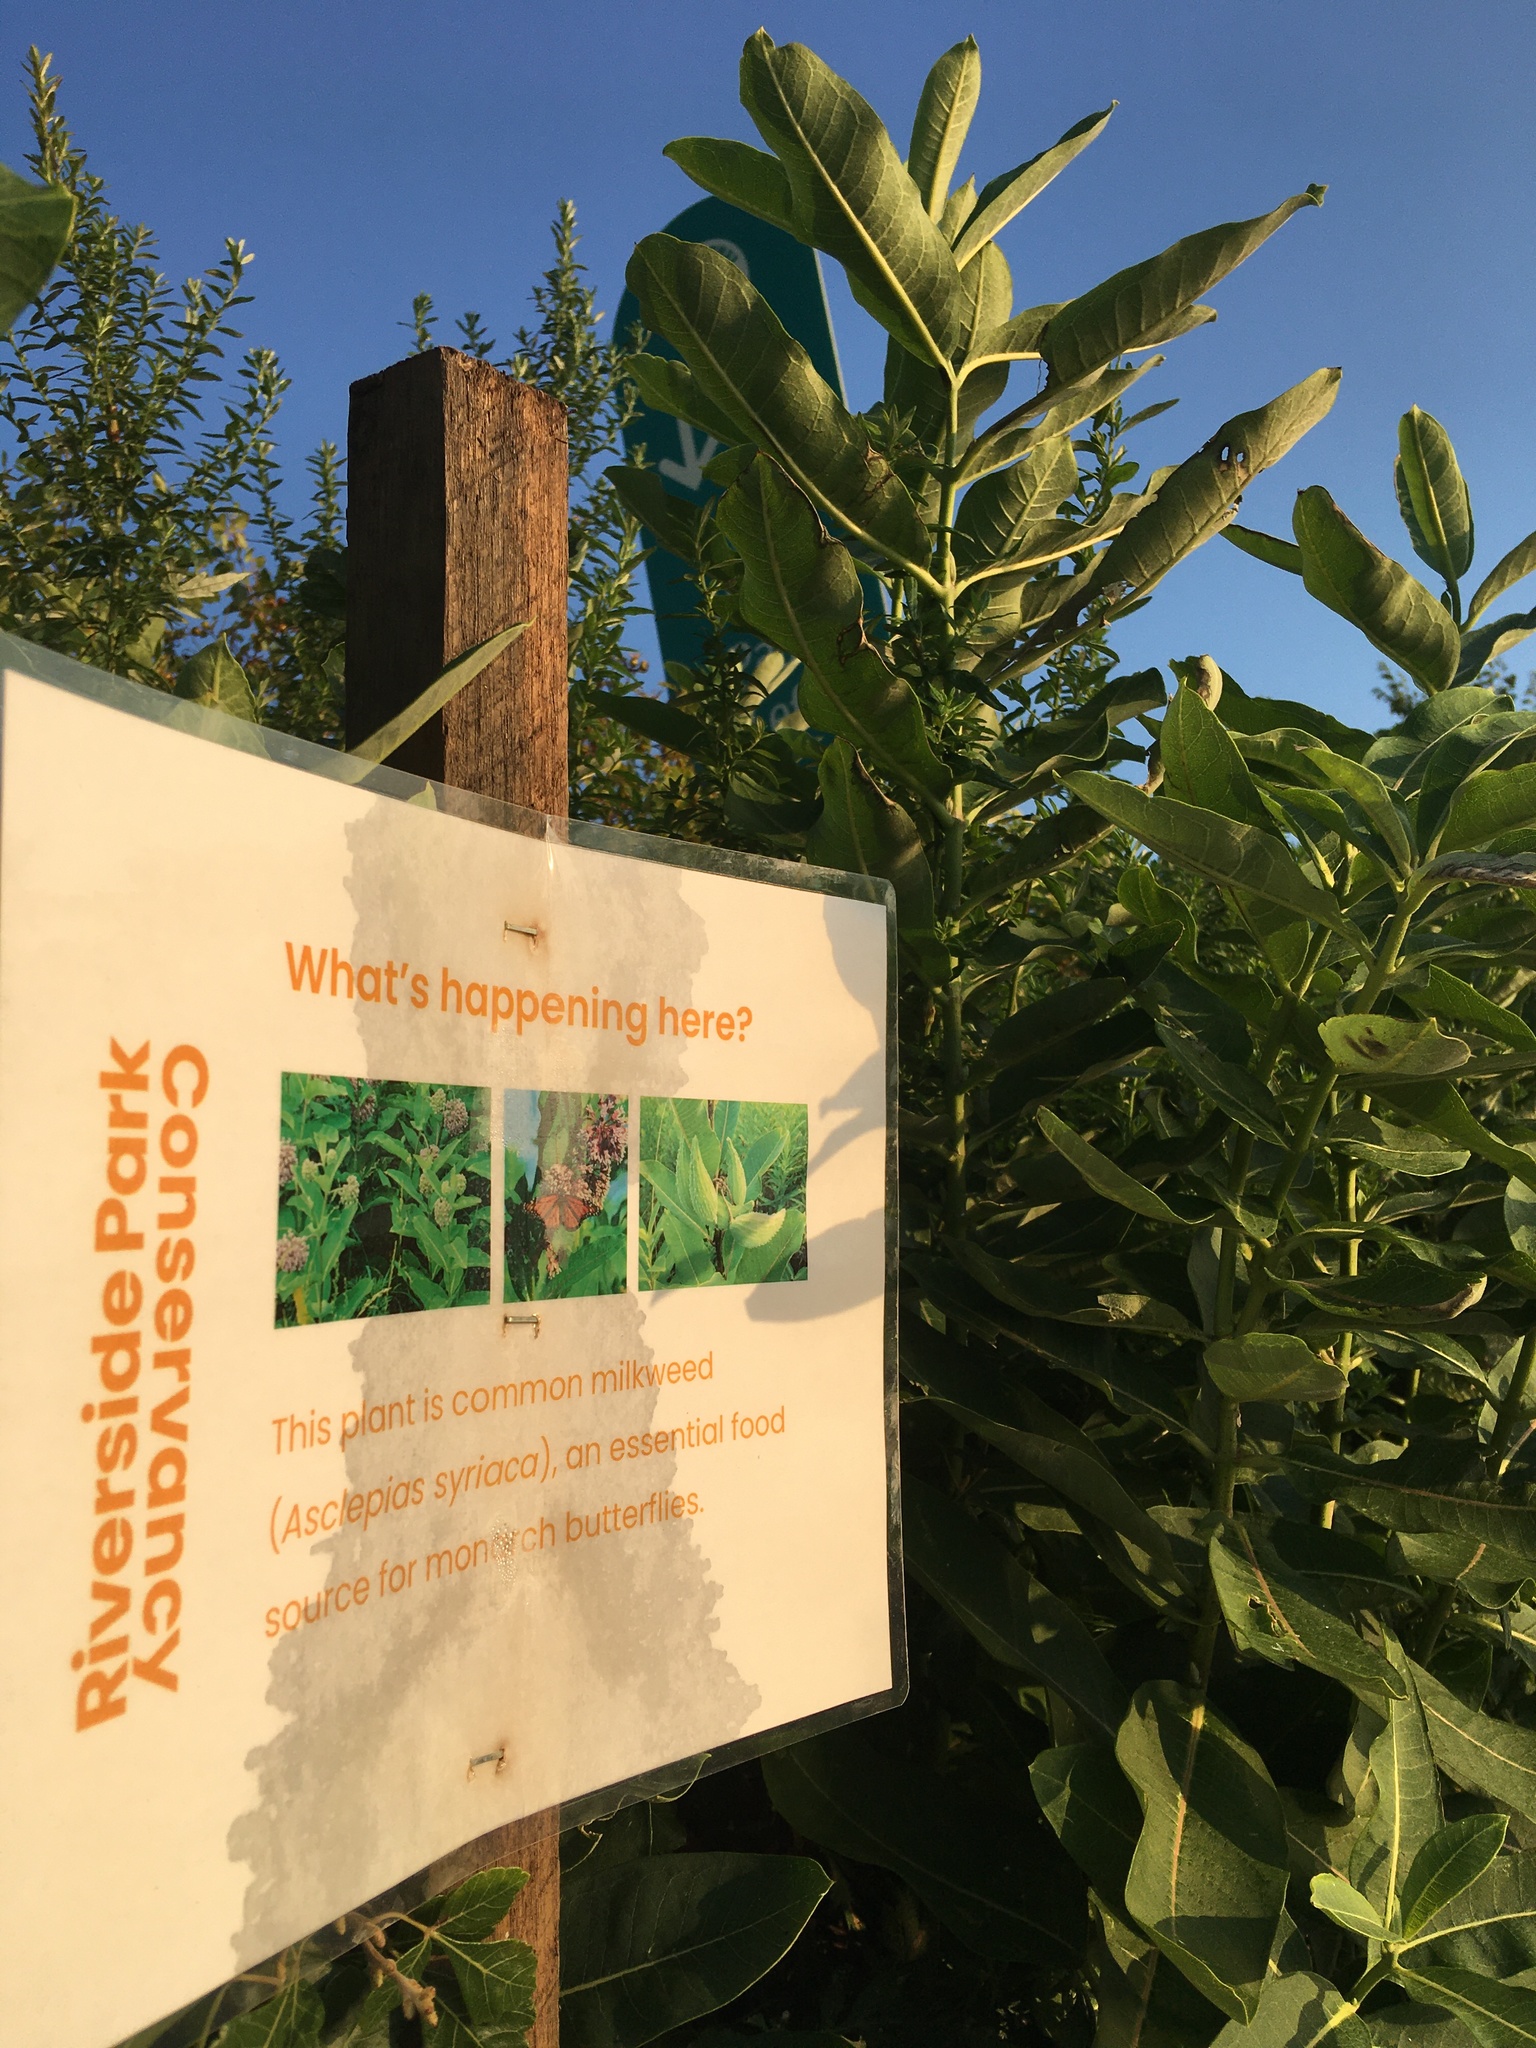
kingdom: Plantae
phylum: Tracheophyta
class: Magnoliopsida
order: Gentianales
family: Apocynaceae
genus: Asclepias
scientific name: Asclepias syriaca
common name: Common milkweed
